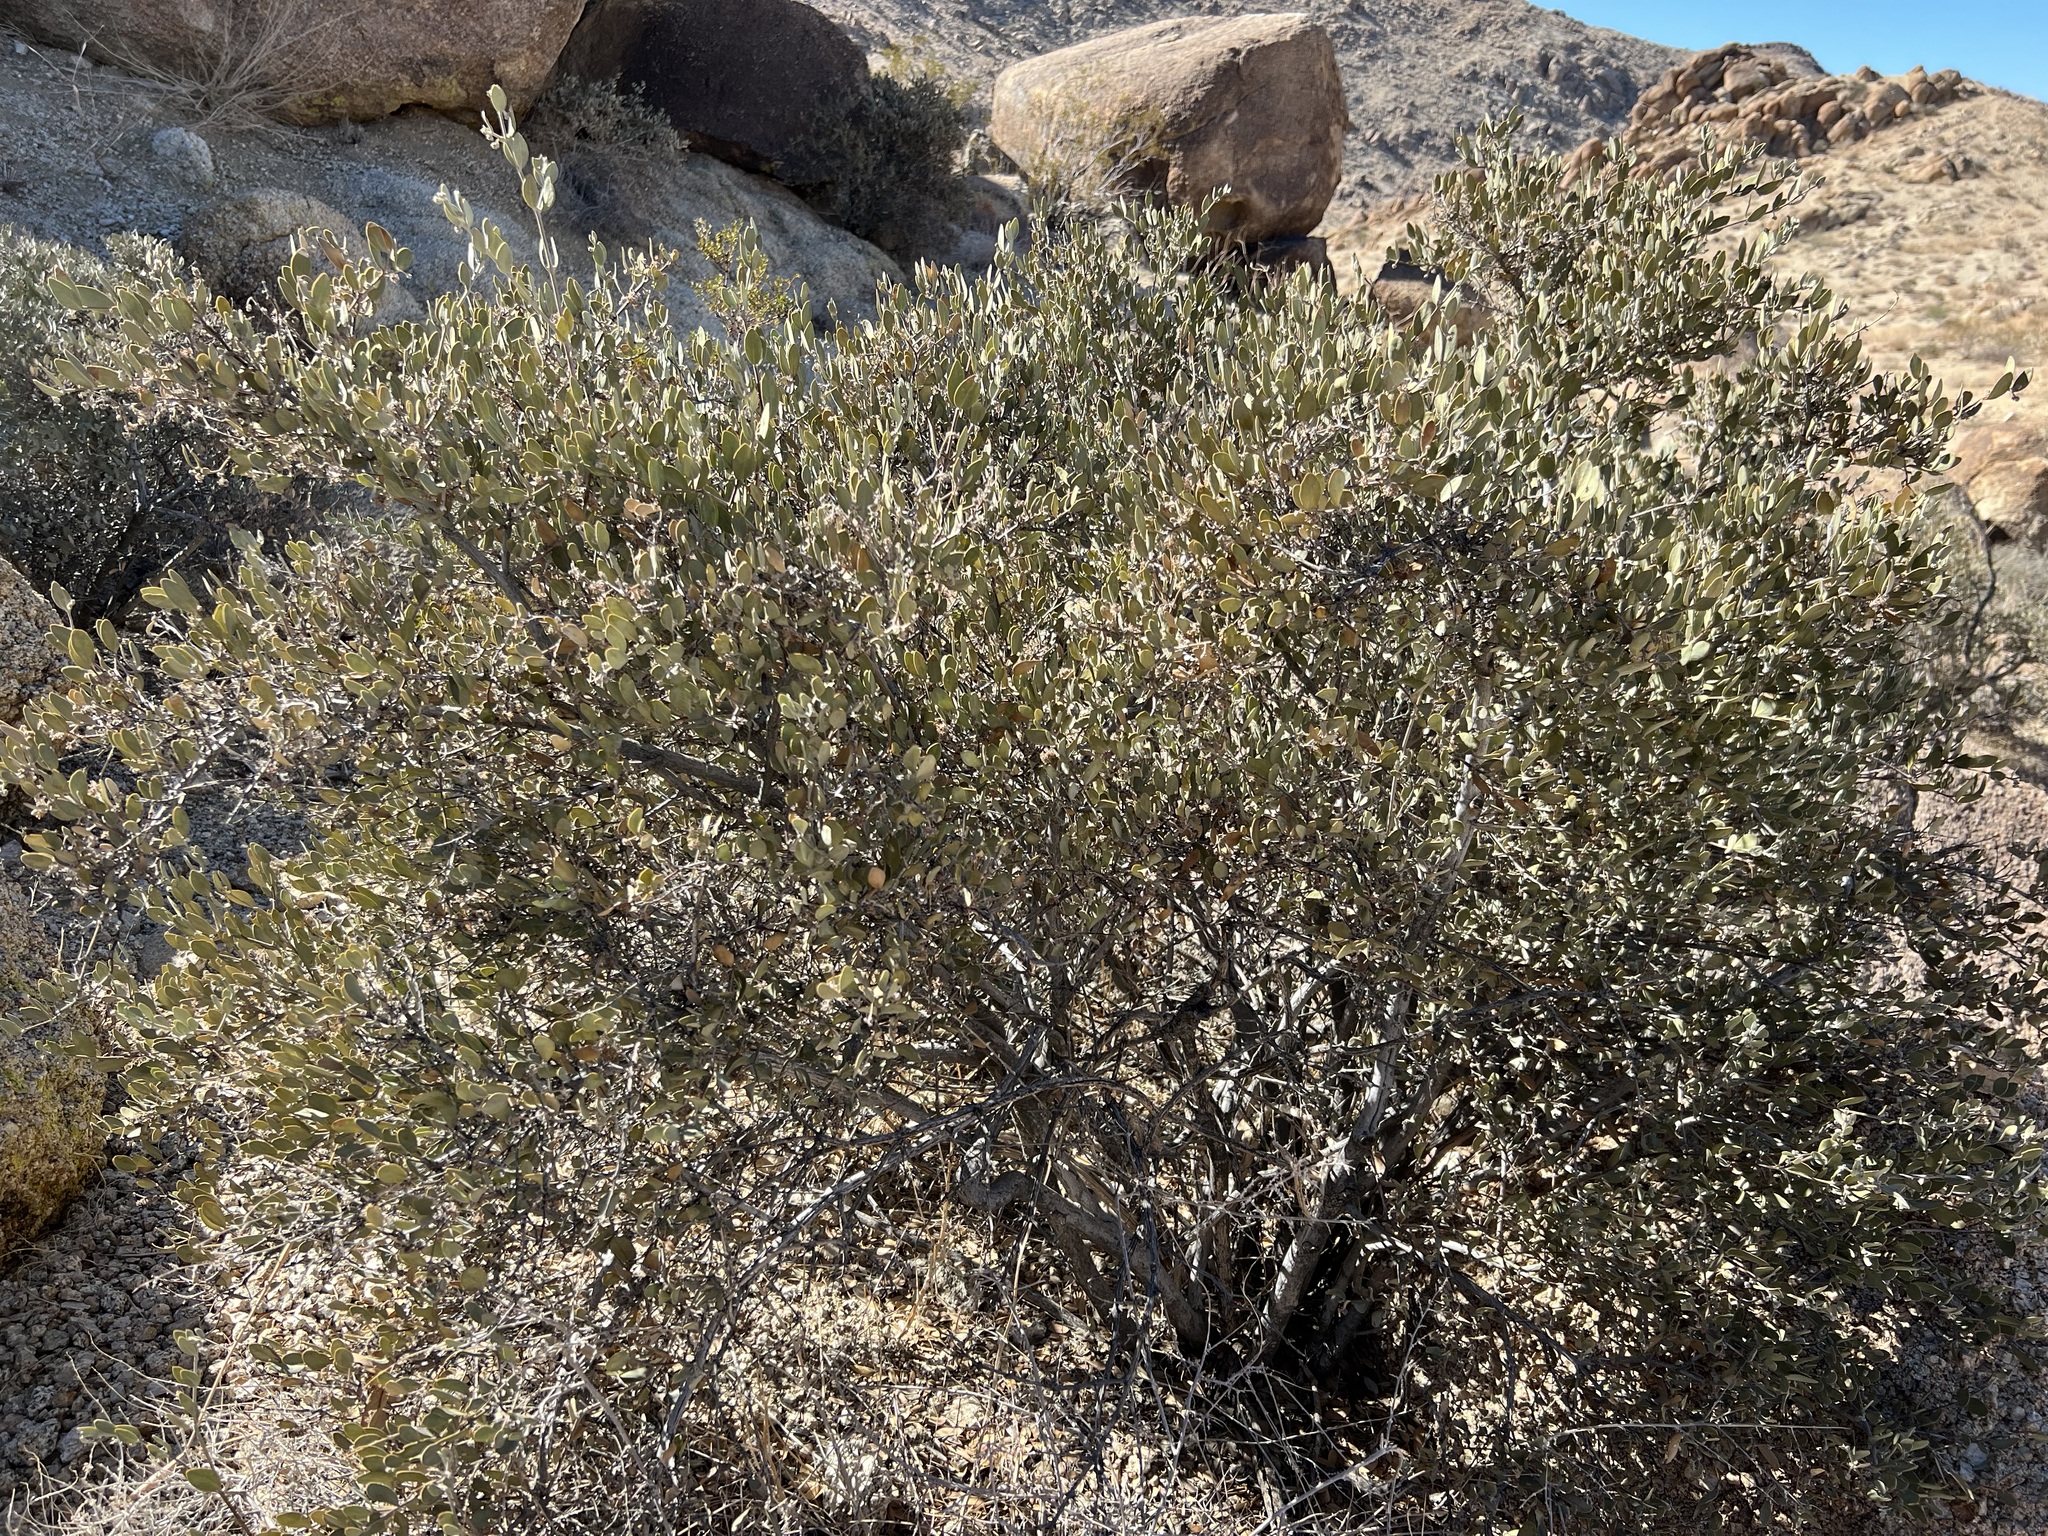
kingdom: Plantae
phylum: Tracheophyta
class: Magnoliopsida
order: Caryophyllales
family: Simmondsiaceae
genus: Simmondsia
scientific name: Simmondsia chinensis
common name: Jojoba
